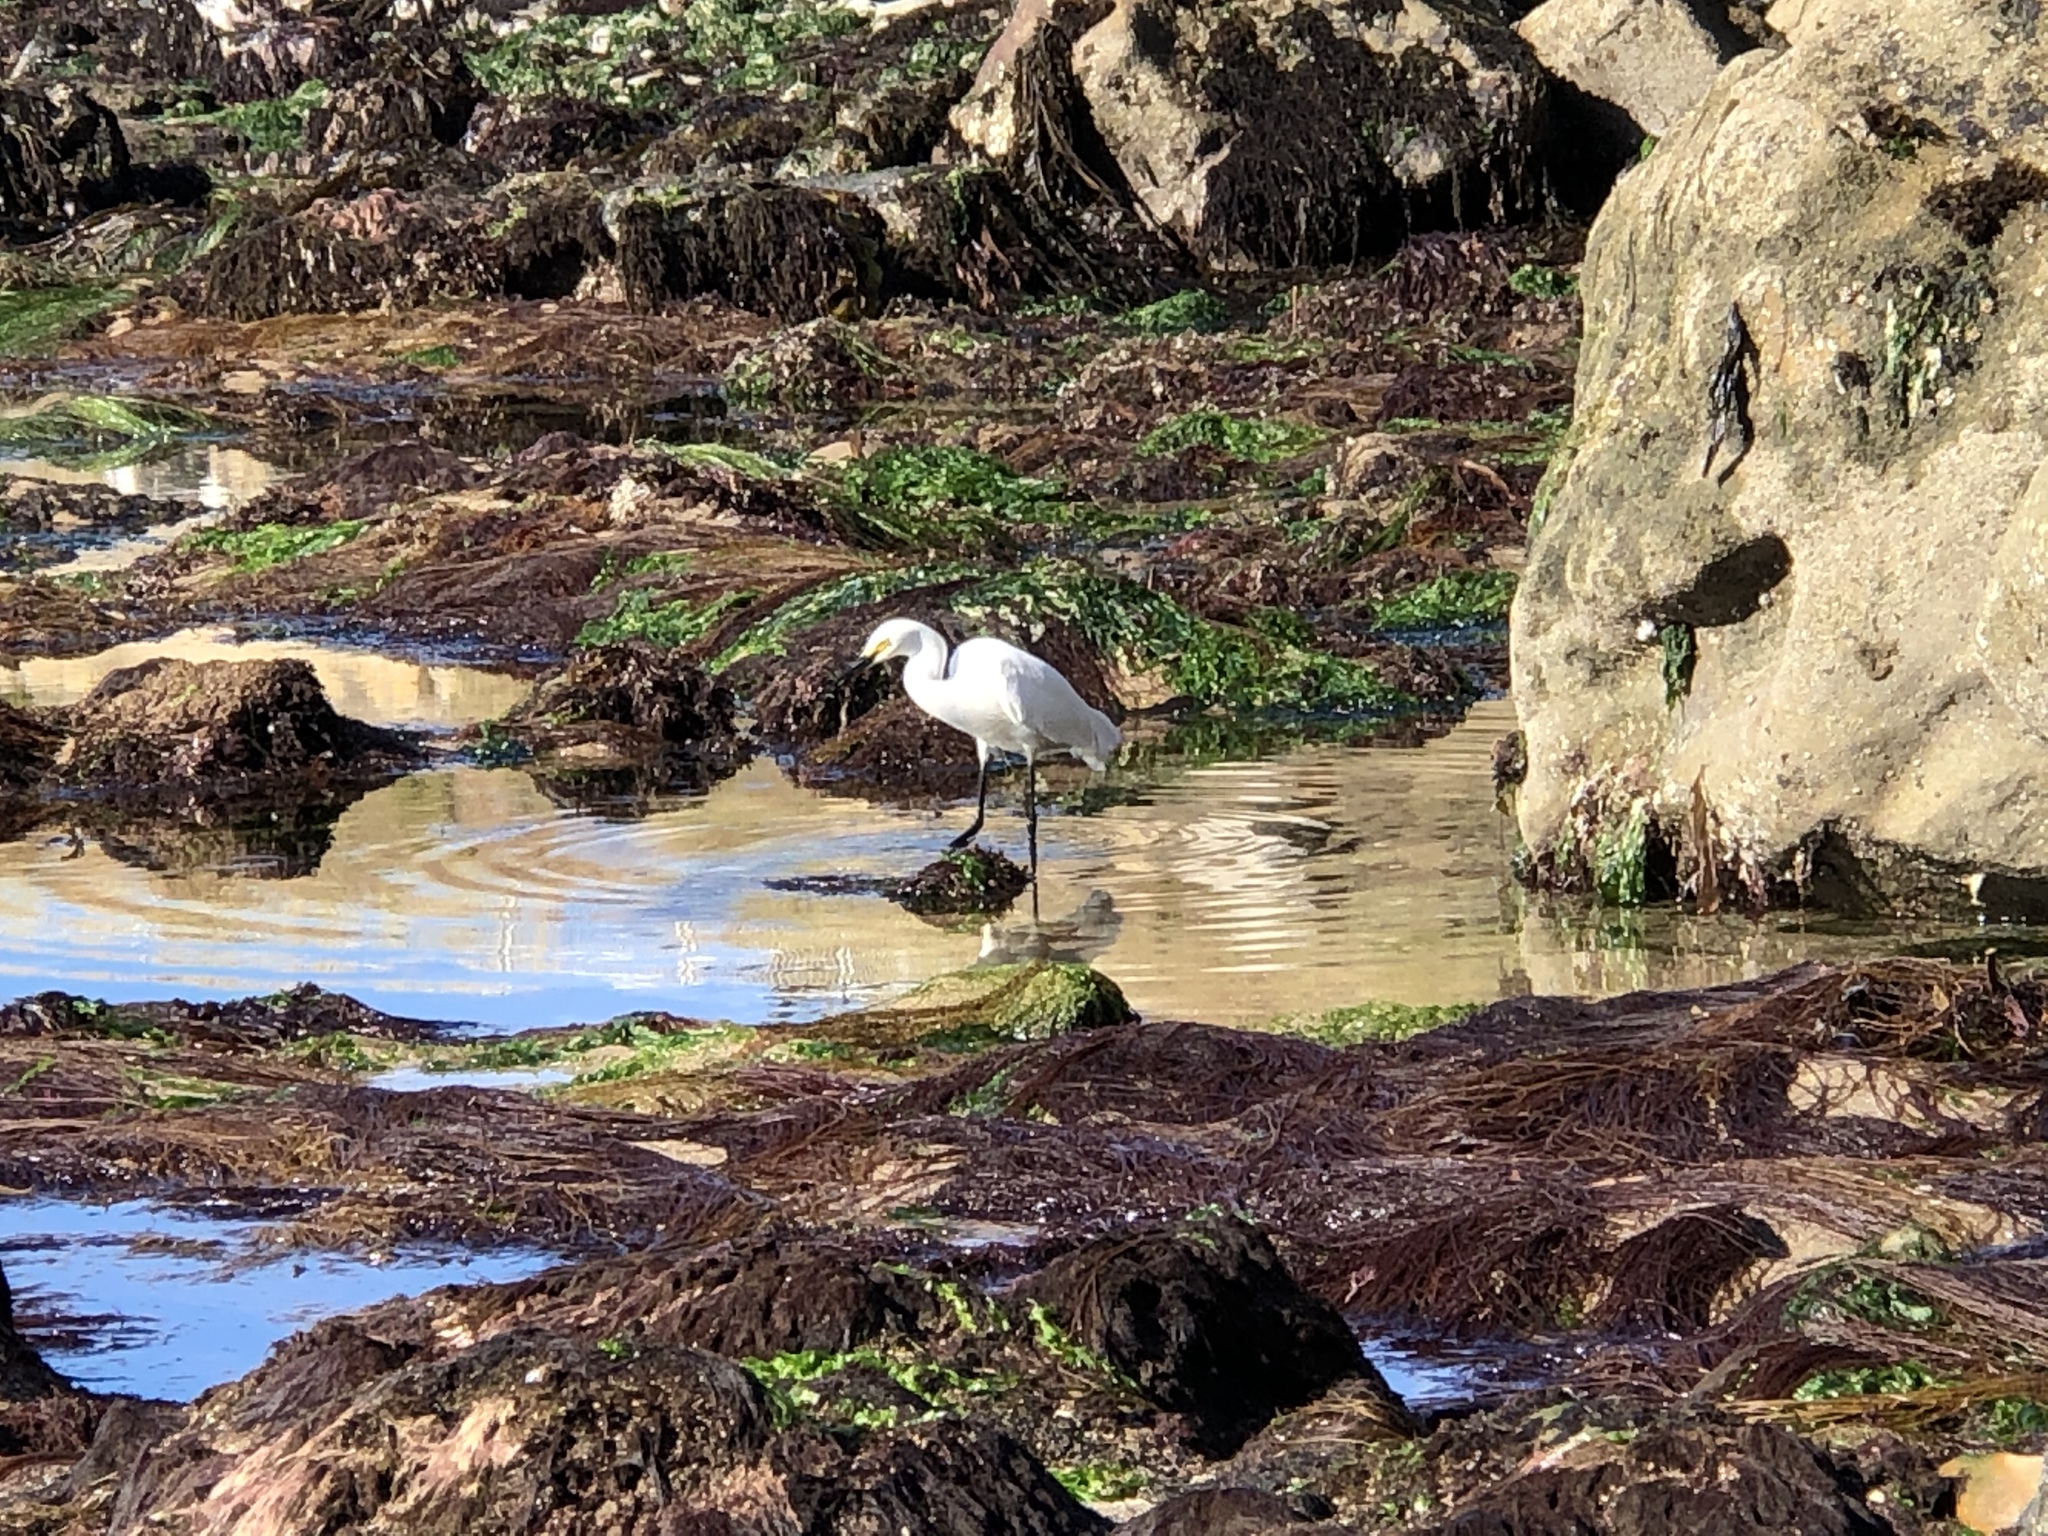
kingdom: Animalia
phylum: Chordata
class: Aves
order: Pelecaniformes
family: Ardeidae
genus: Egretta
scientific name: Egretta thula
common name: Snowy egret
